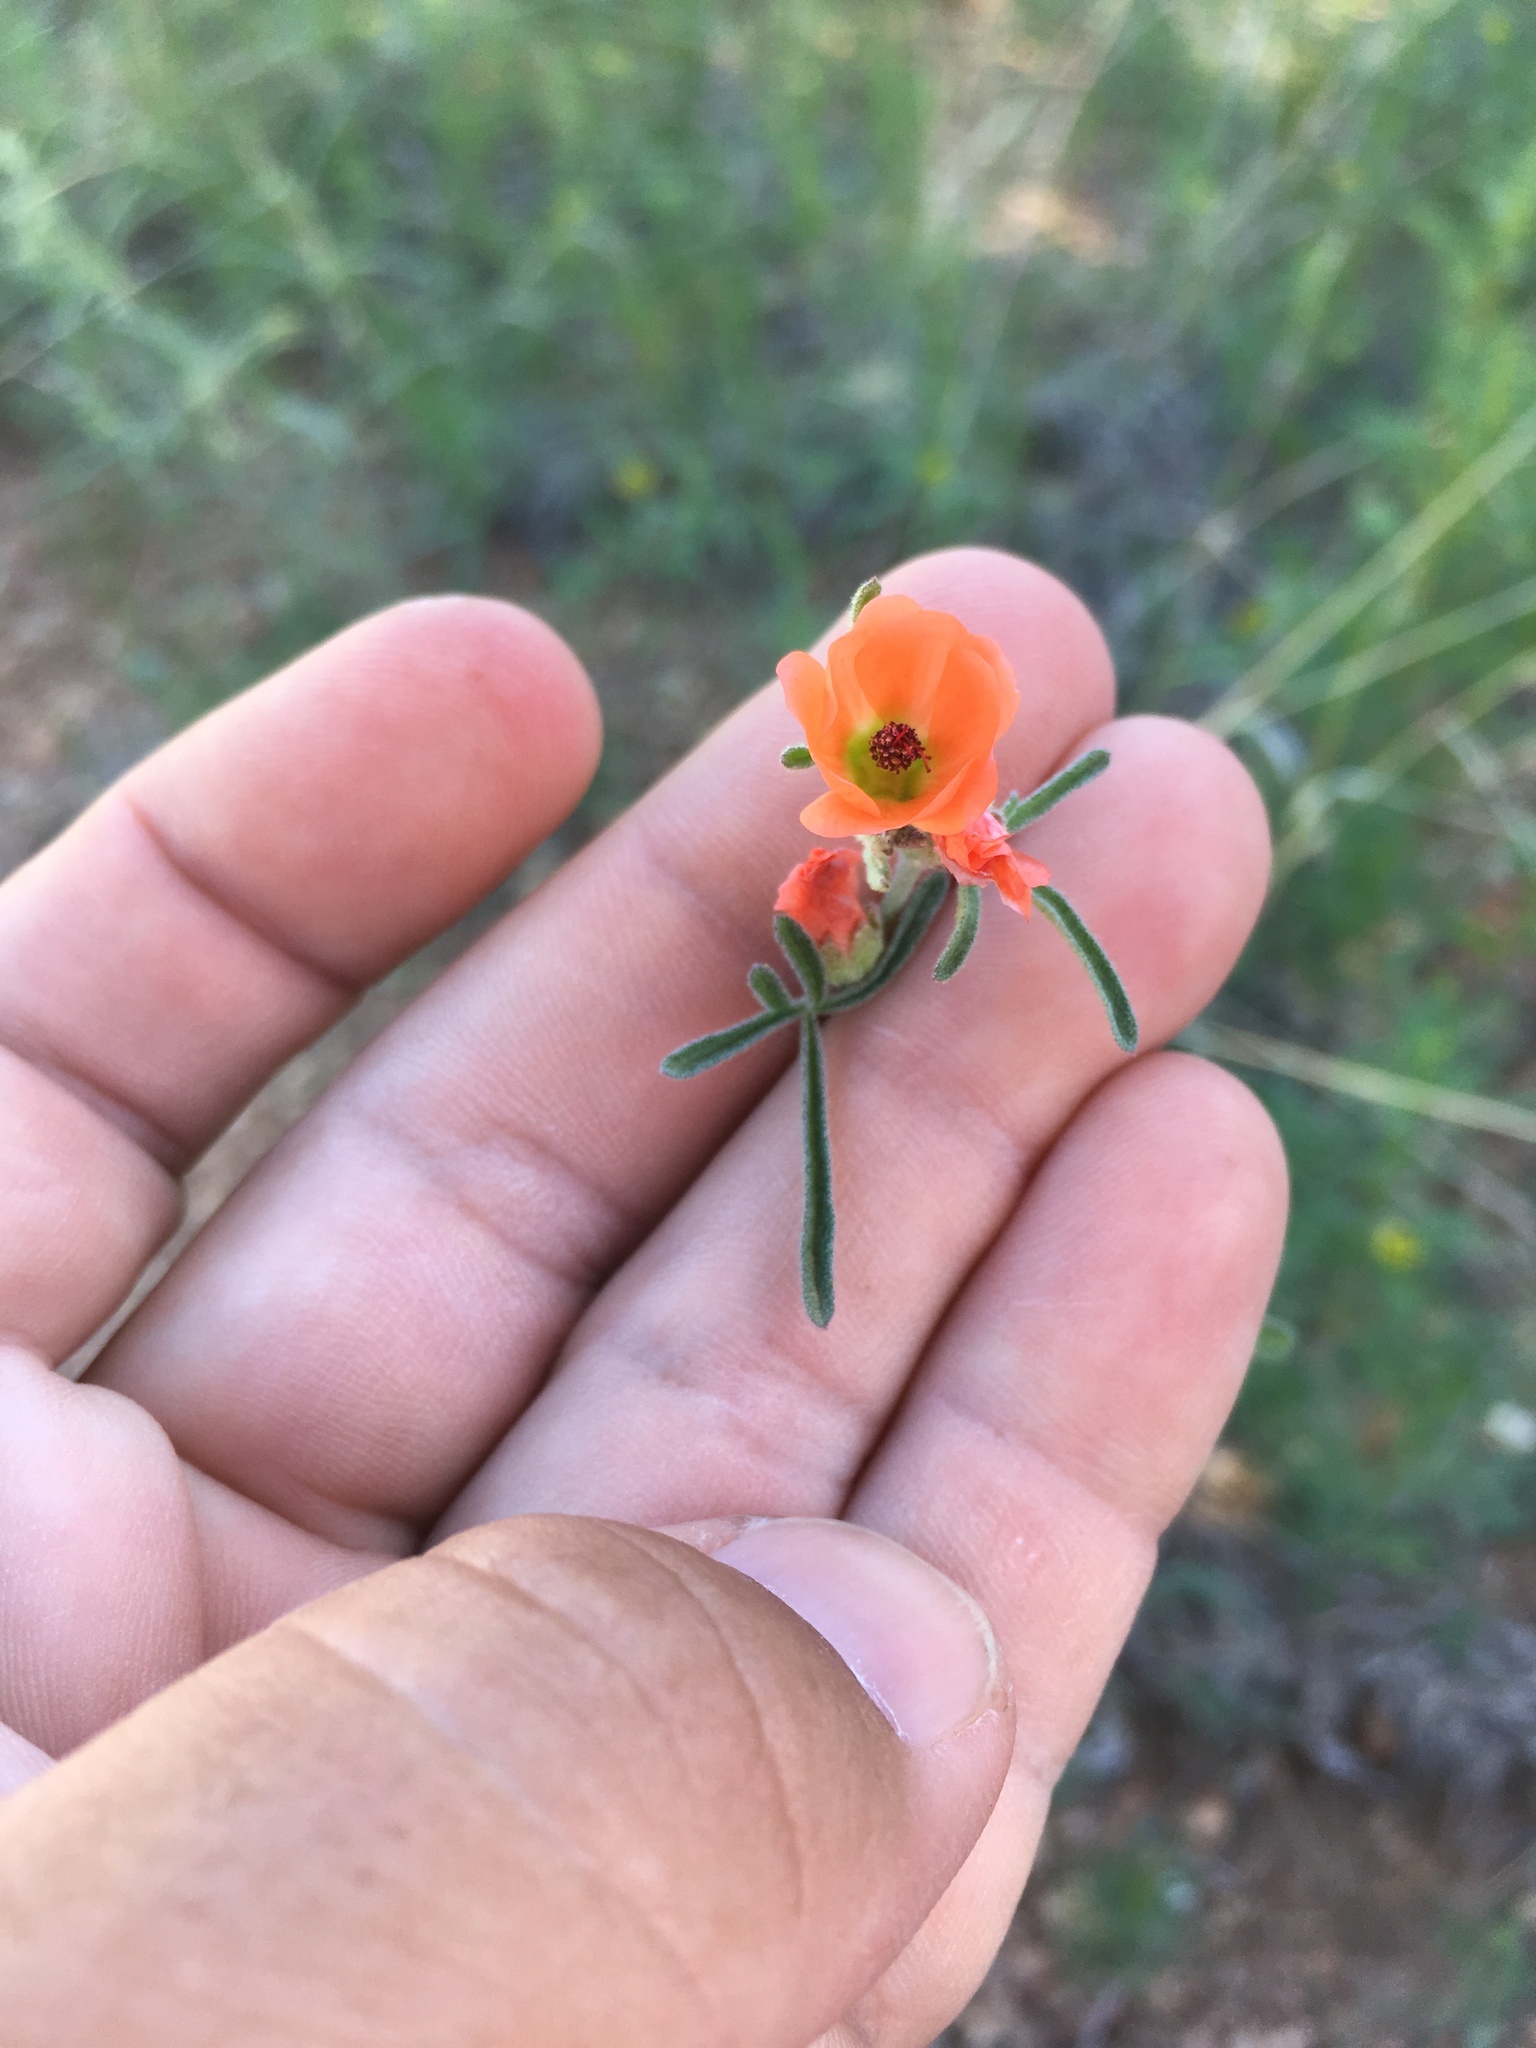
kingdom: Plantae
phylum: Tracheophyta
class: Magnoliopsida
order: Malvales
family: Malvaceae
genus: Sphaeralcea
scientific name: Sphaeralcea digitata
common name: Juniper-gobe-mallow
